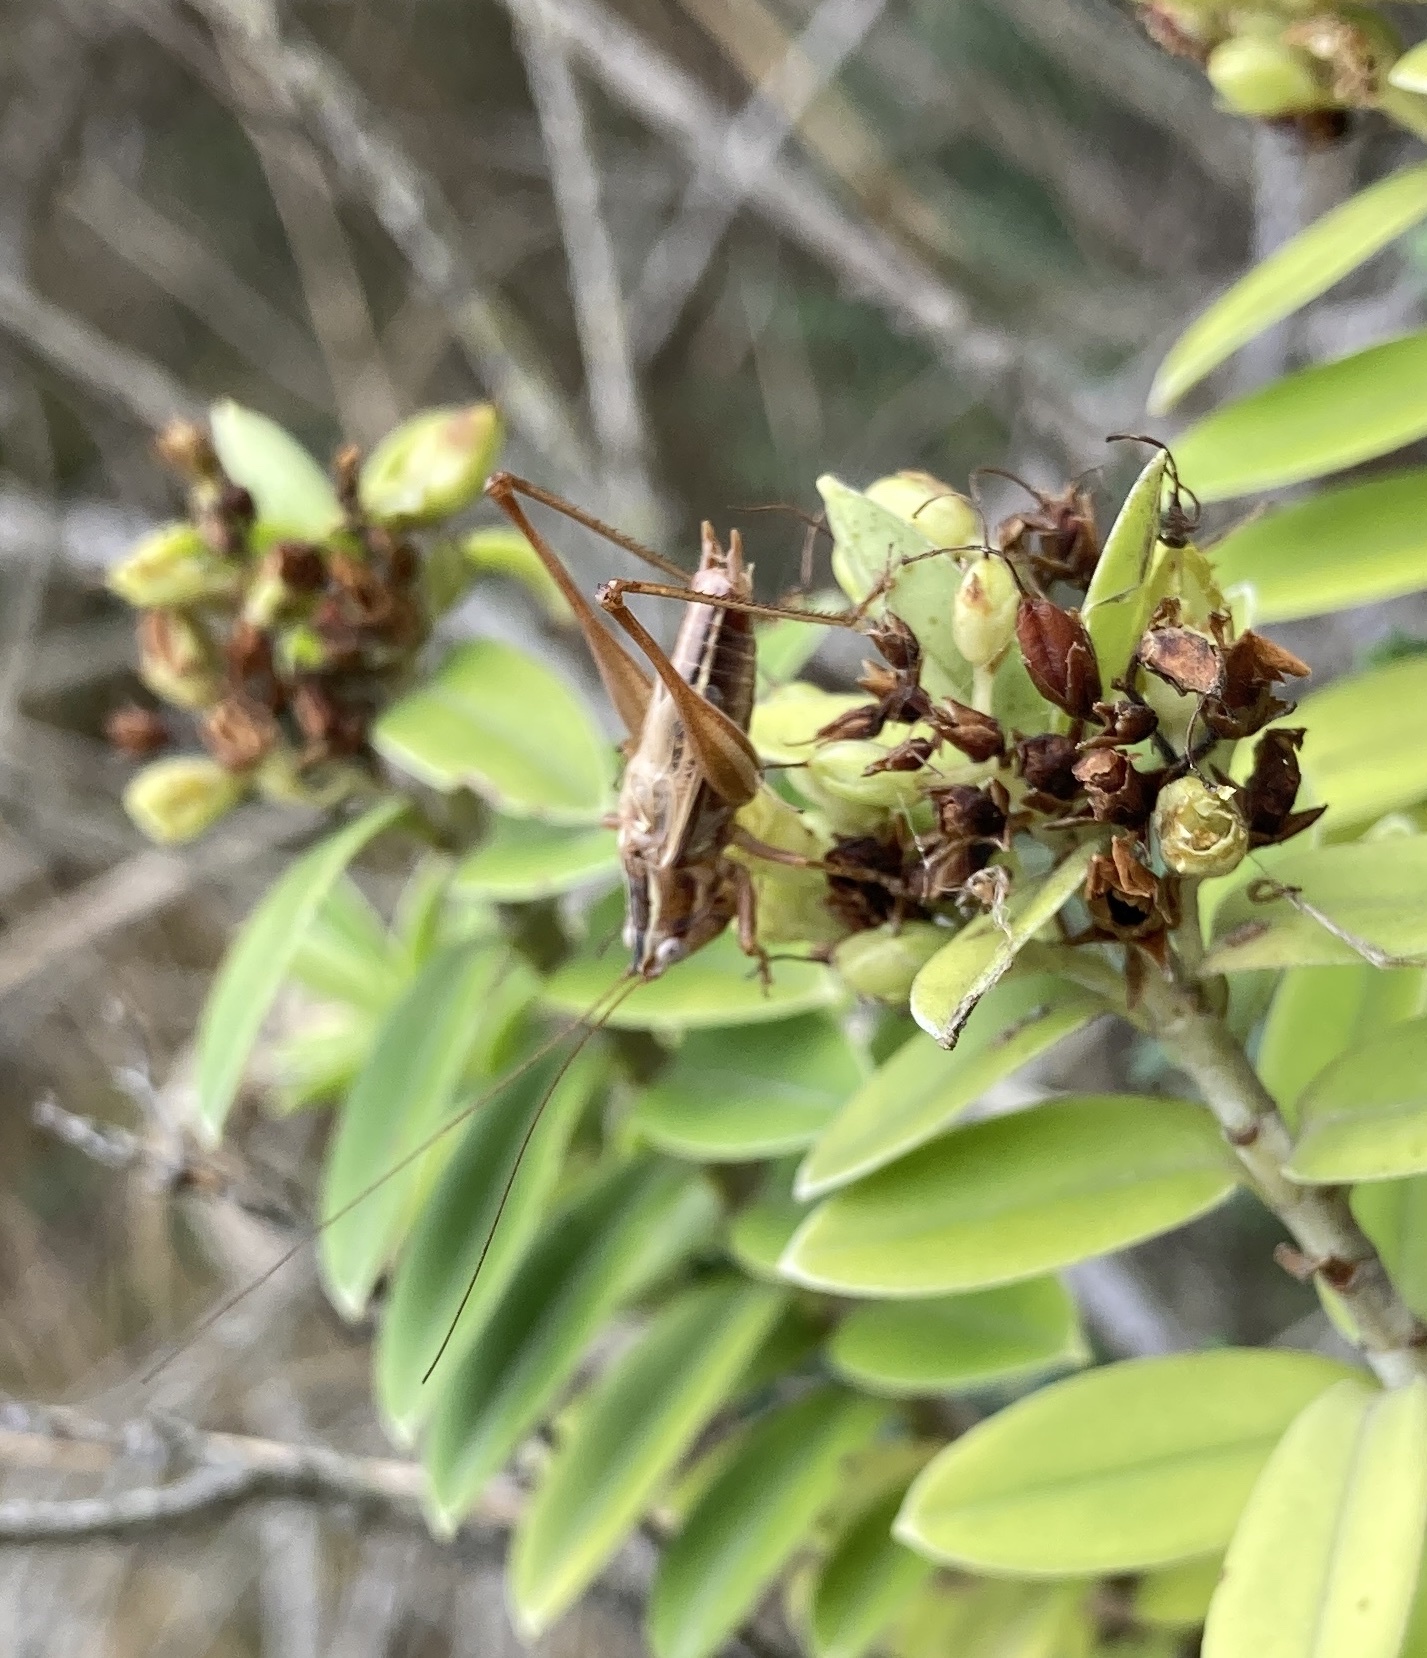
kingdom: Animalia
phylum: Arthropoda
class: Insecta
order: Orthoptera
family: Tettigoniidae
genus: Conocephalus
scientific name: Conocephalus bilineatus
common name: Small meadow katydid
